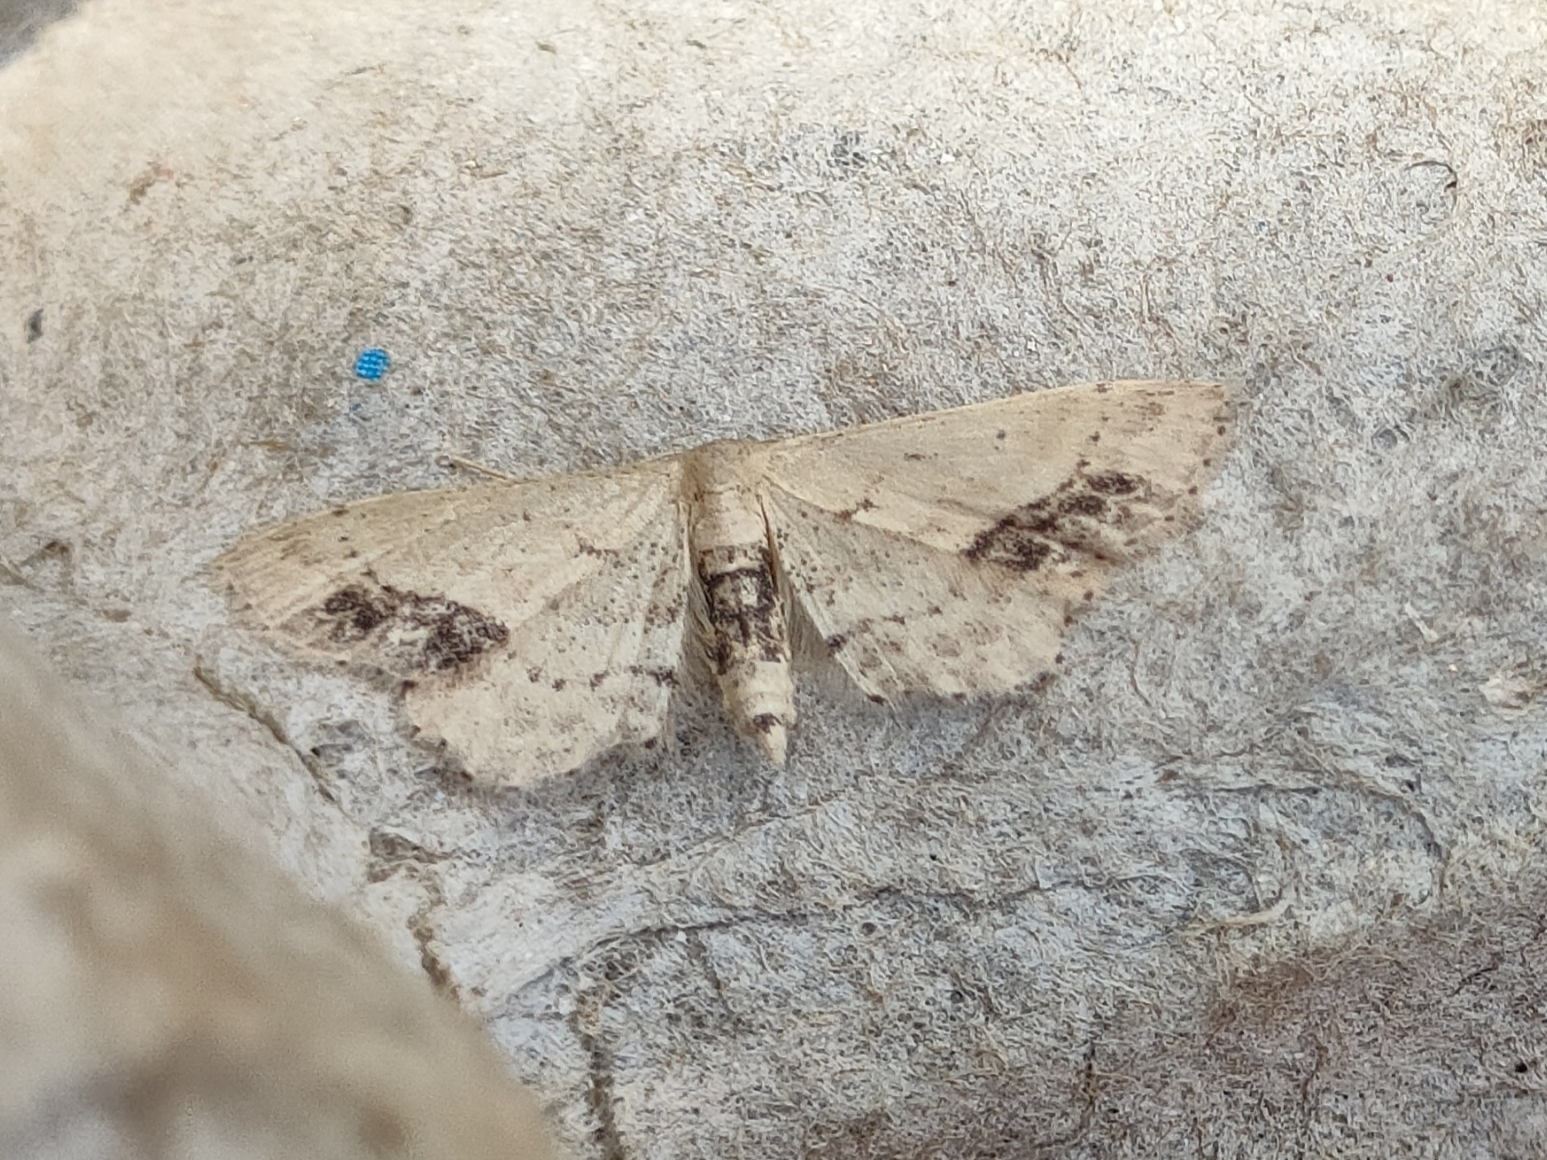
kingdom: Animalia
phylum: Arthropoda
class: Insecta
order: Lepidoptera
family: Geometridae
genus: Idaea
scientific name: Idaea dimidiata
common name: Single-dotted wave
